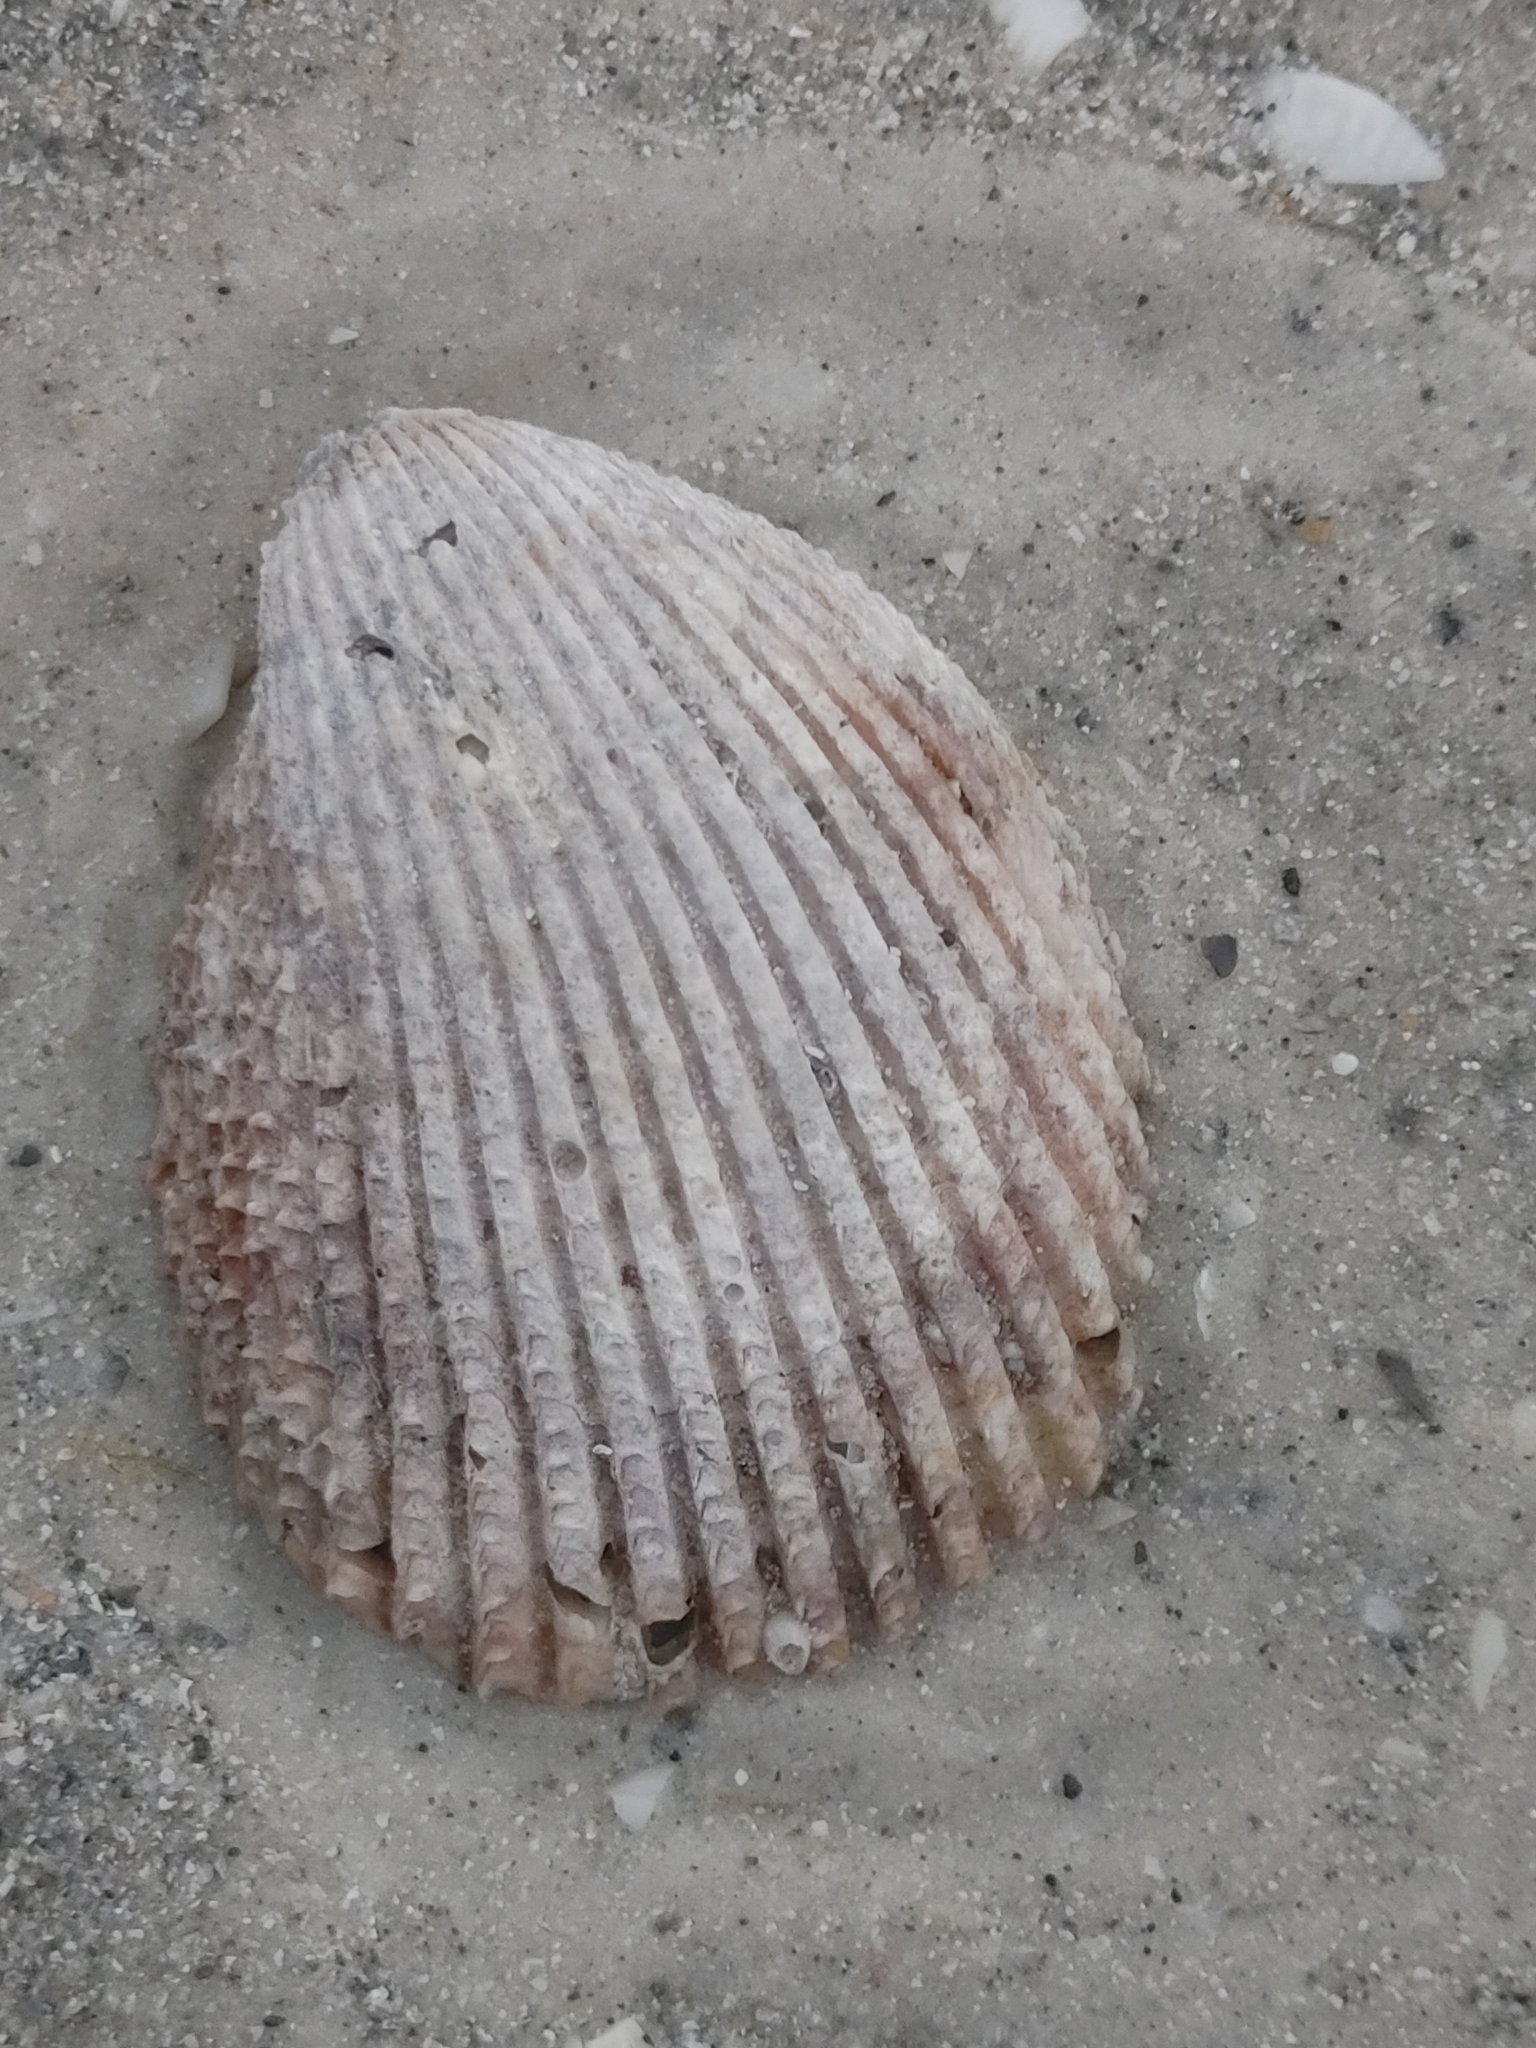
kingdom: Animalia
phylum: Mollusca
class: Bivalvia
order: Cardiida
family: Cardiidae
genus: Trachycardium
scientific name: Trachycardium egmontianum
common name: Florida pricklycockle
